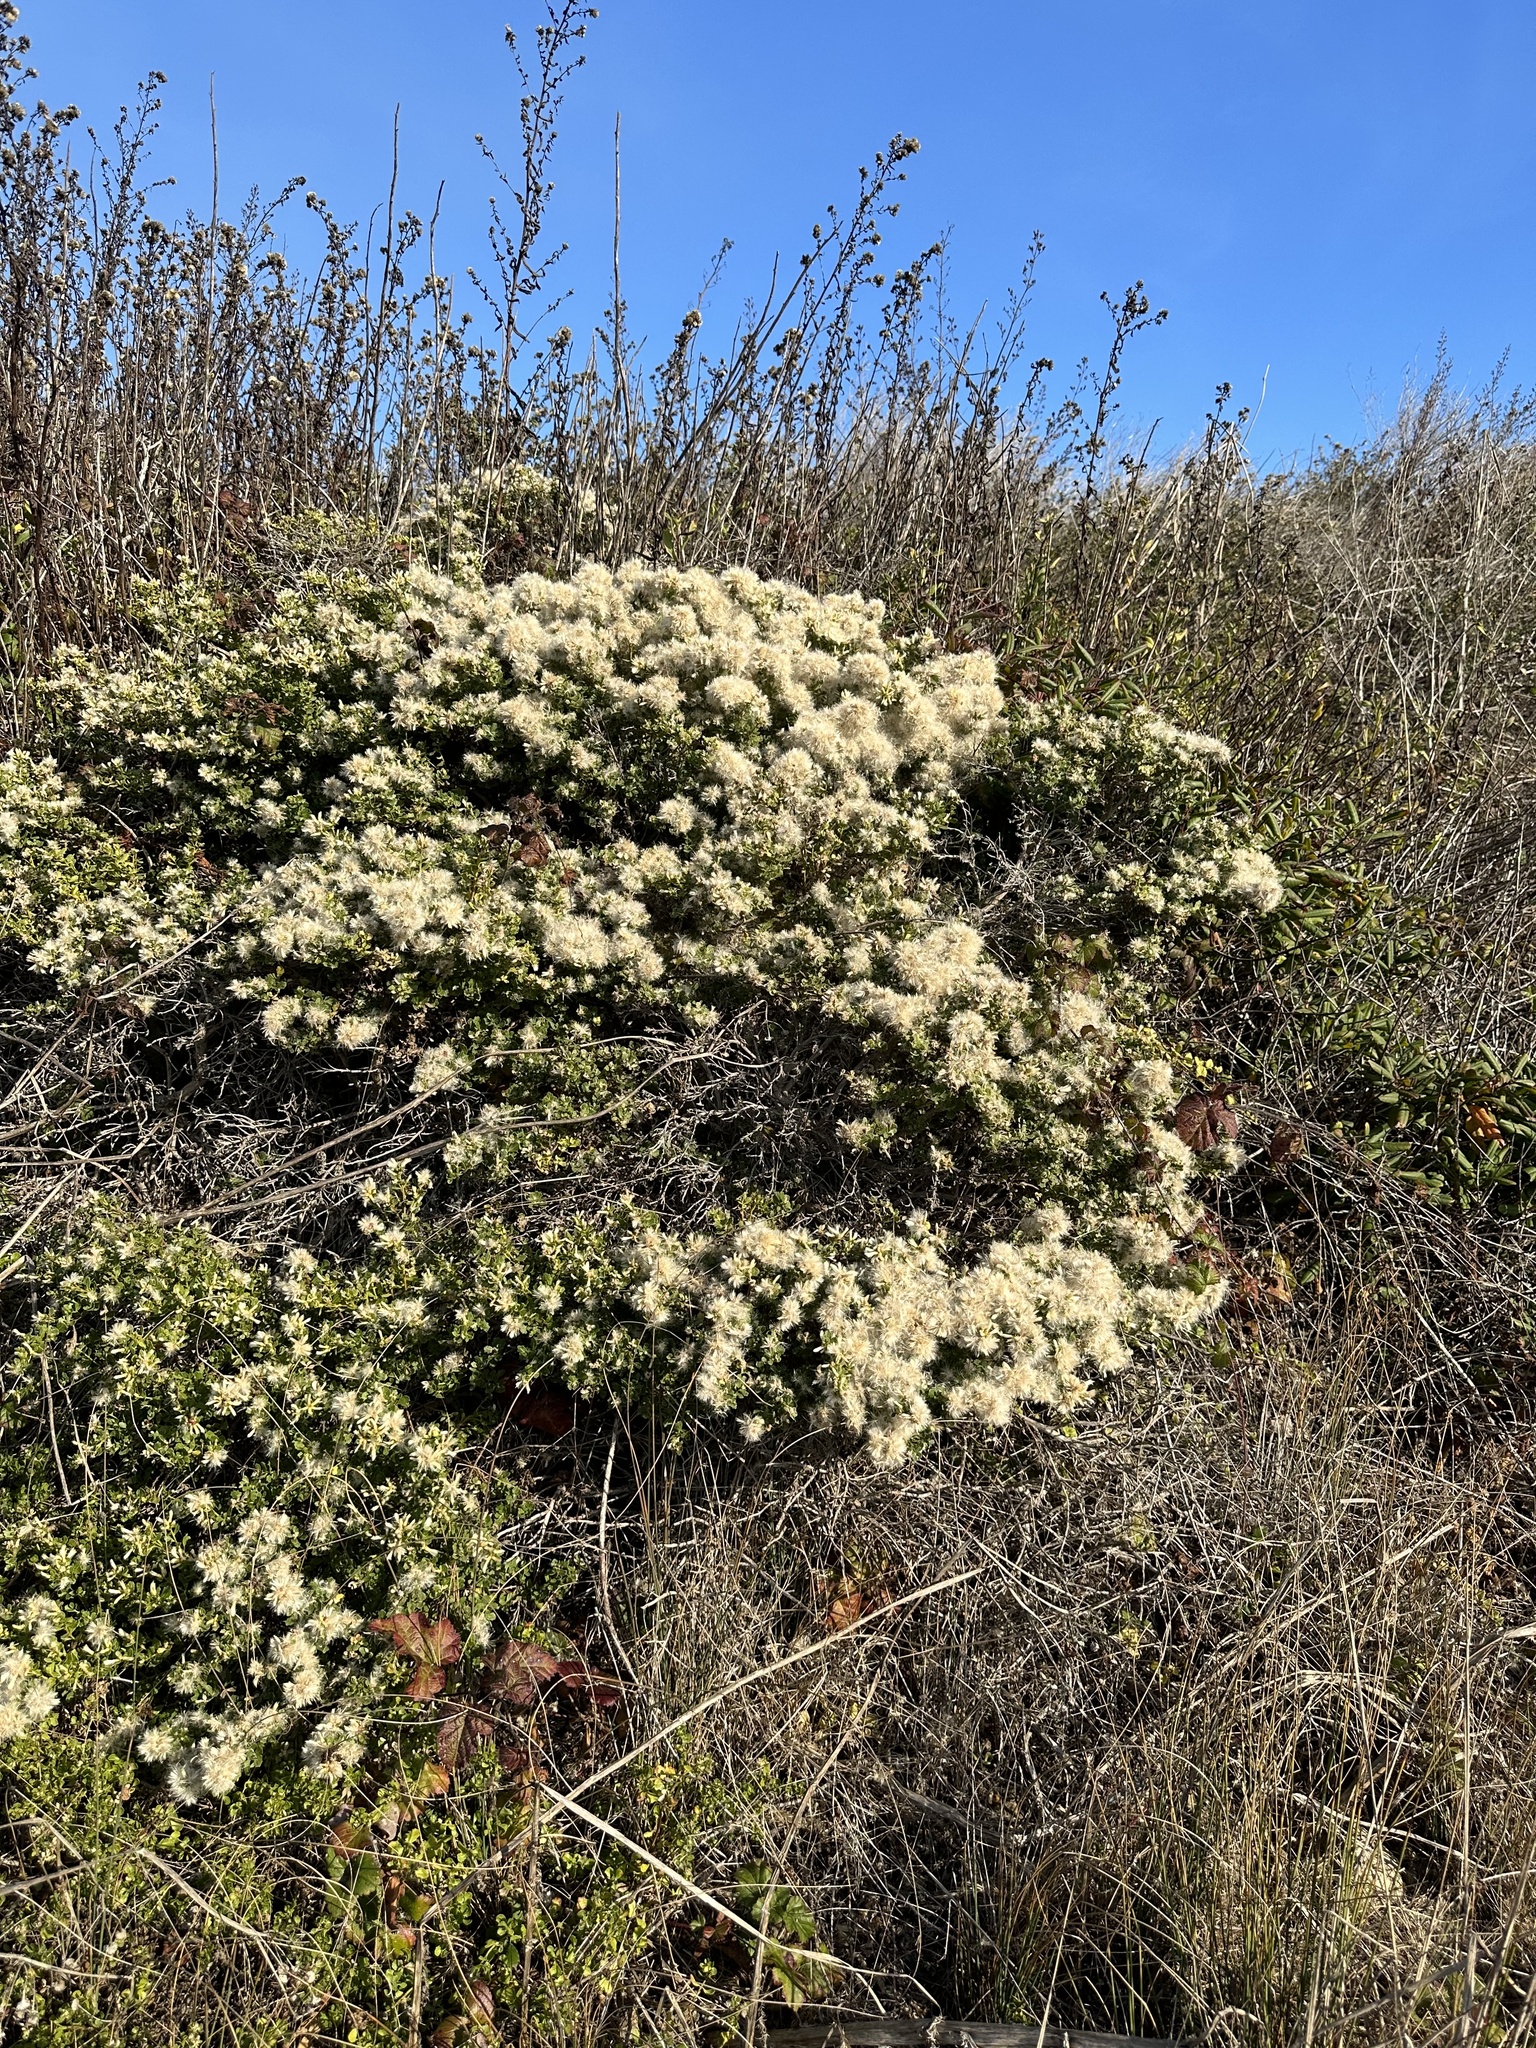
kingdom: Plantae
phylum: Tracheophyta
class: Magnoliopsida
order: Asterales
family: Asteraceae
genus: Baccharis
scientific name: Baccharis pilularis
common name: Coyotebrush
